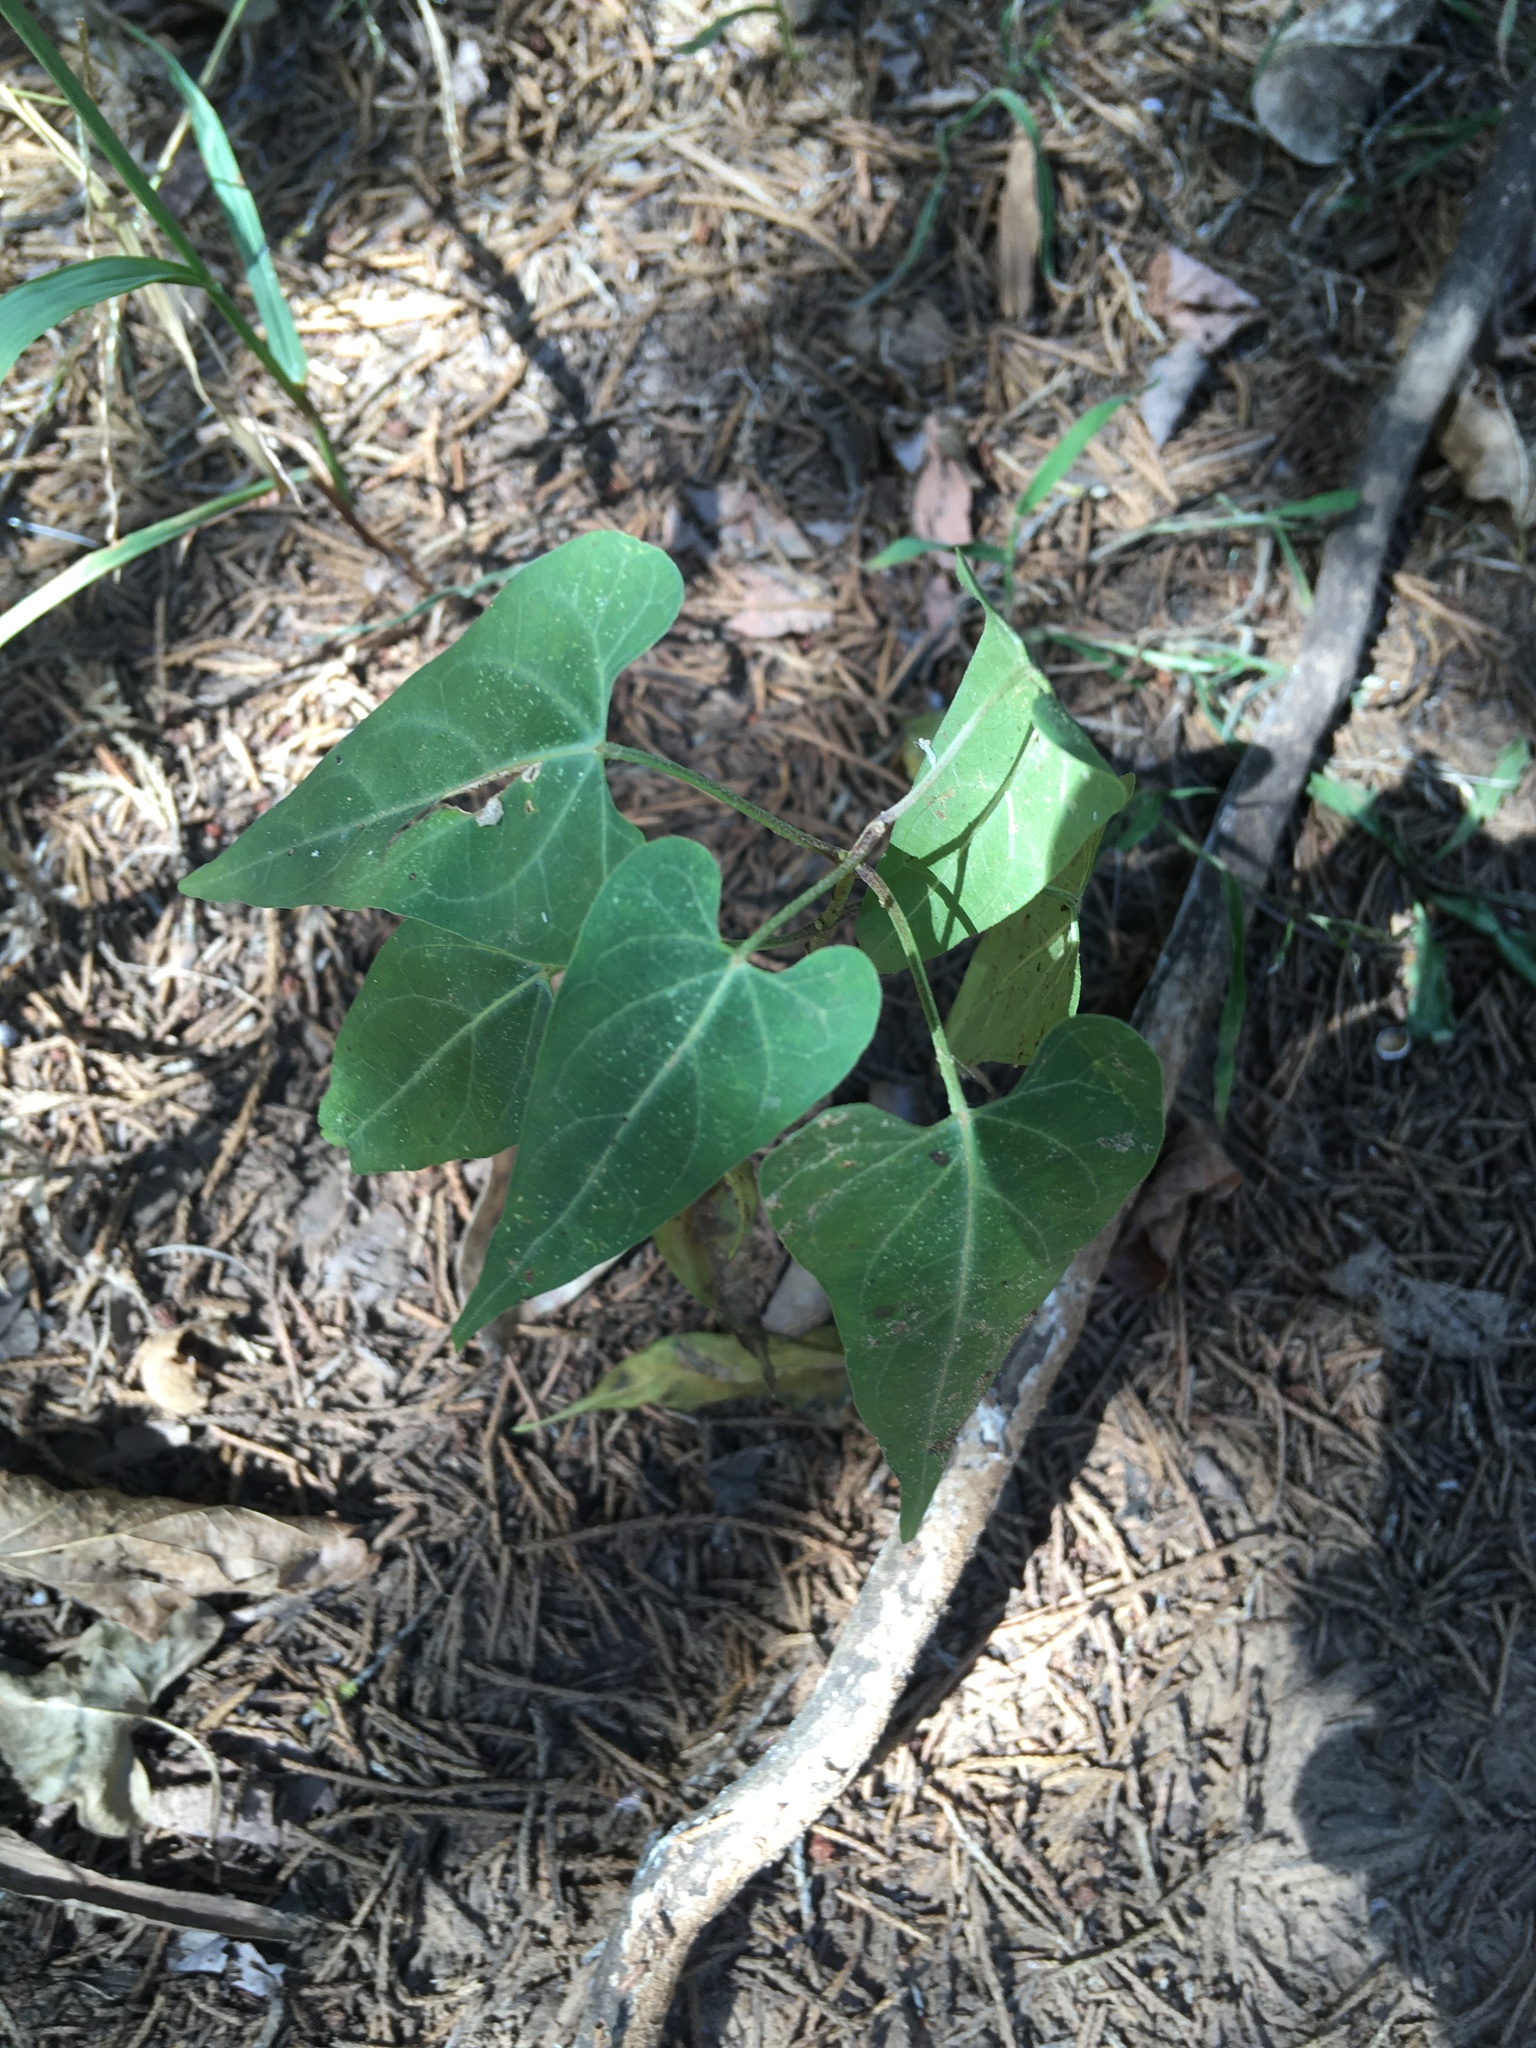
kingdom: Plantae
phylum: Tracheophyta
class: Magnoliopsida
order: Gentianales
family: Apocynaceae
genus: Cynanchum
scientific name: Cynanchum laeve
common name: Sandvine
